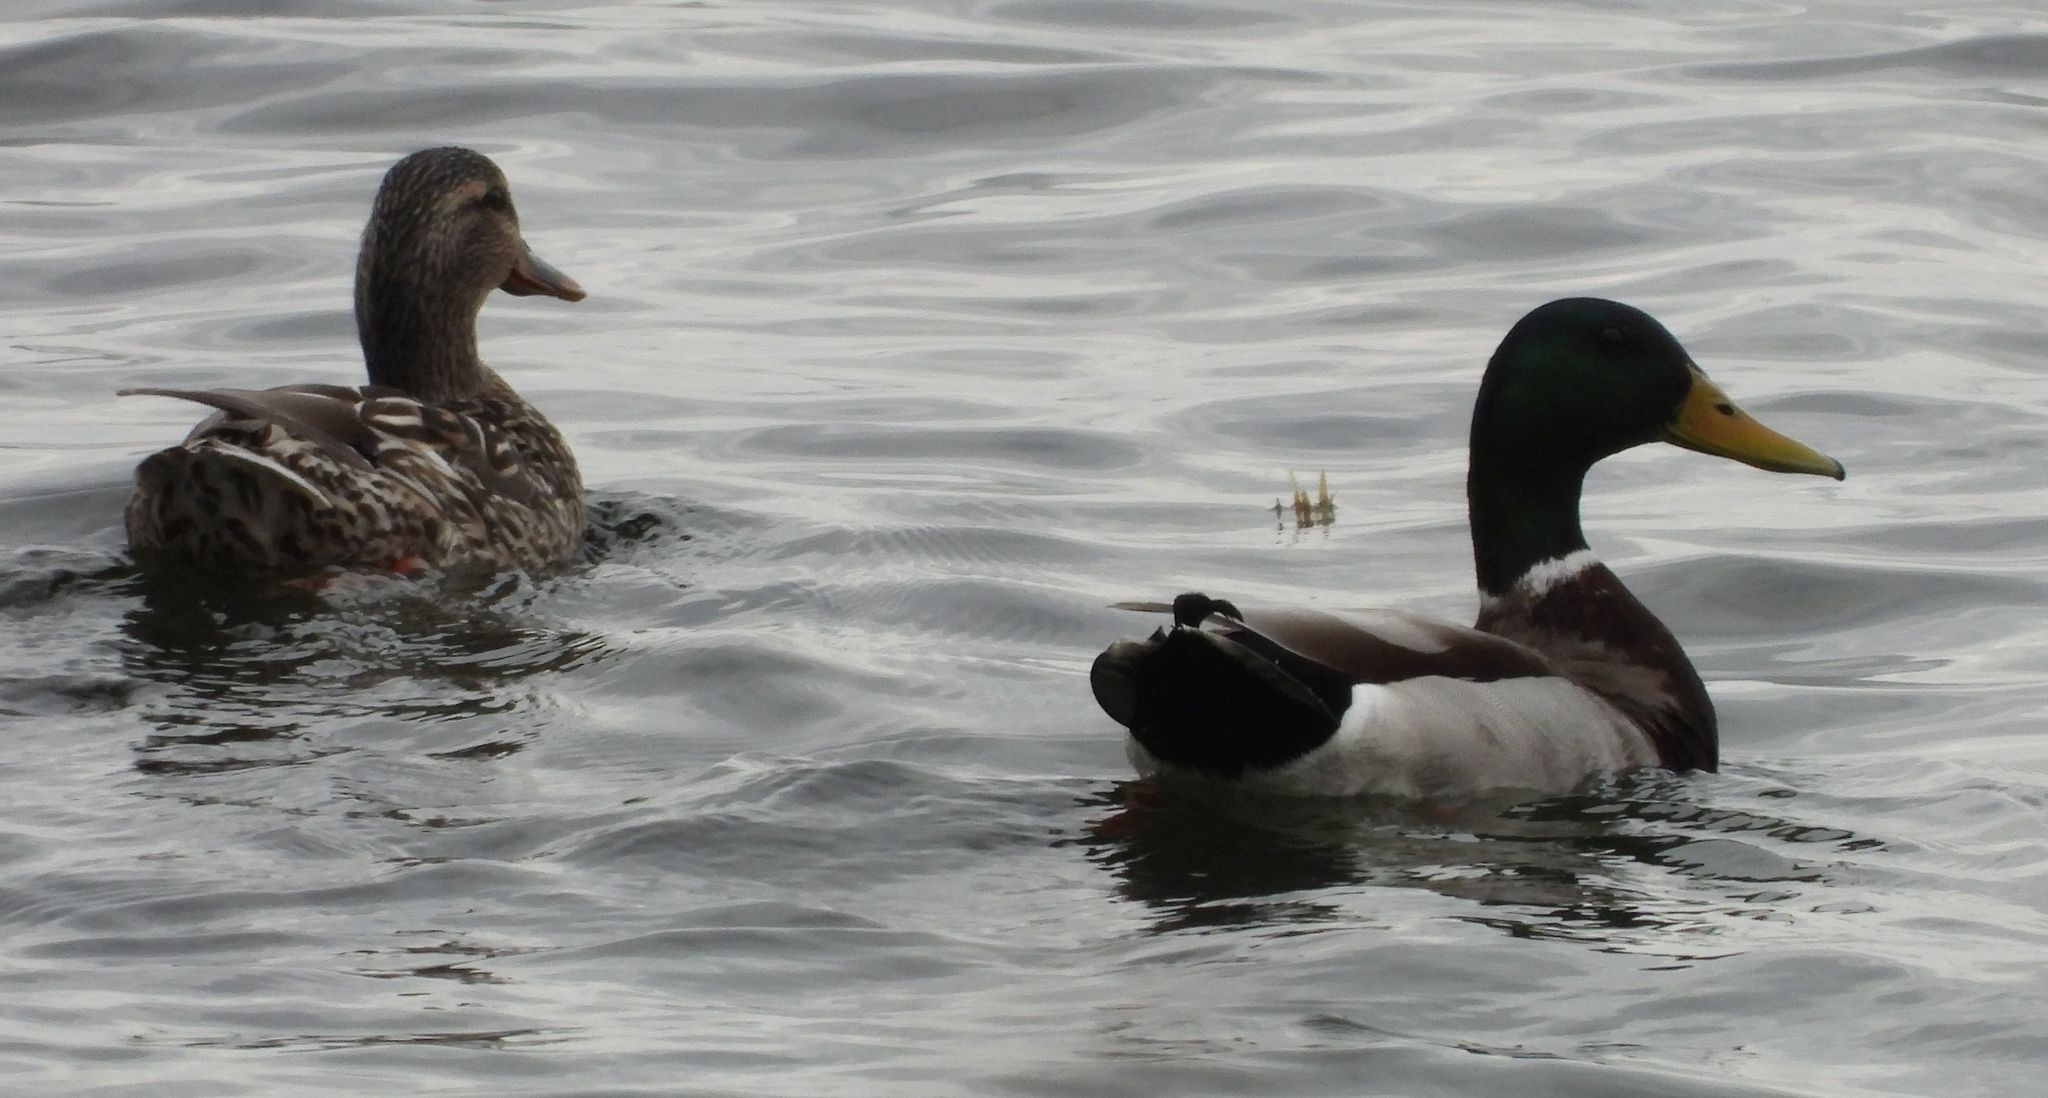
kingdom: Animalia
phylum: Chordata
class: Aves
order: Anseriformes
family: Anatidae
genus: Anas
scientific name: Anas platyrhynchos
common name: Mallard
